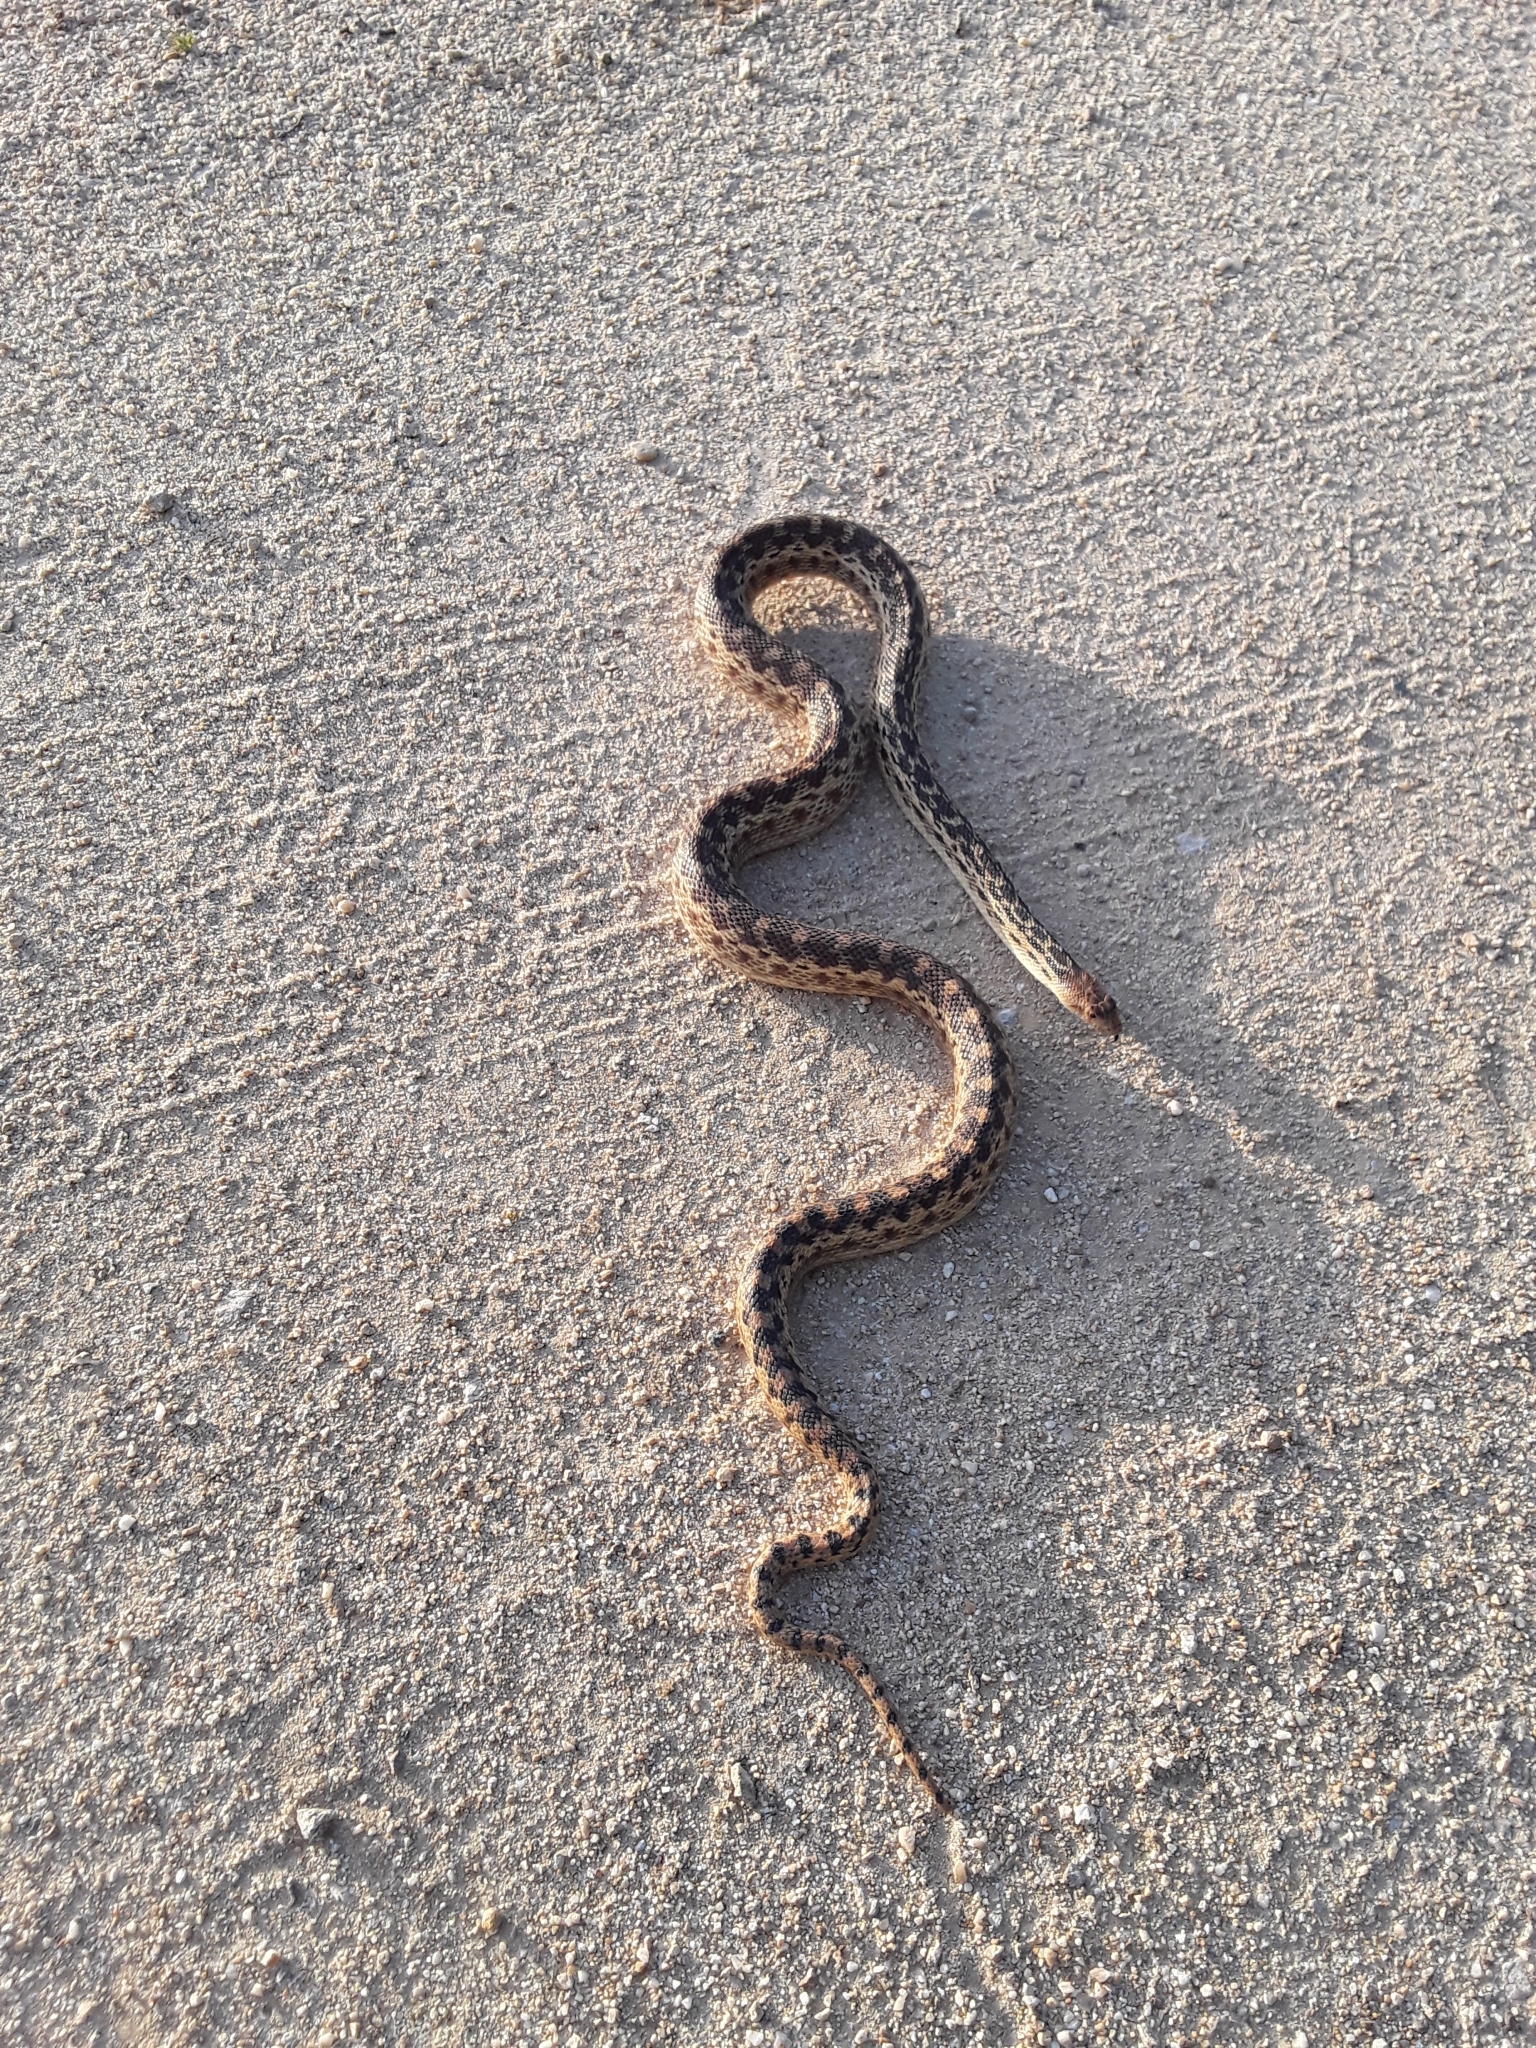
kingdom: Animalia
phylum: Chordata
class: Squamata
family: Colubridae
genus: Pituophis
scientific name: Pituophis catenifer
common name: Gopher snake
